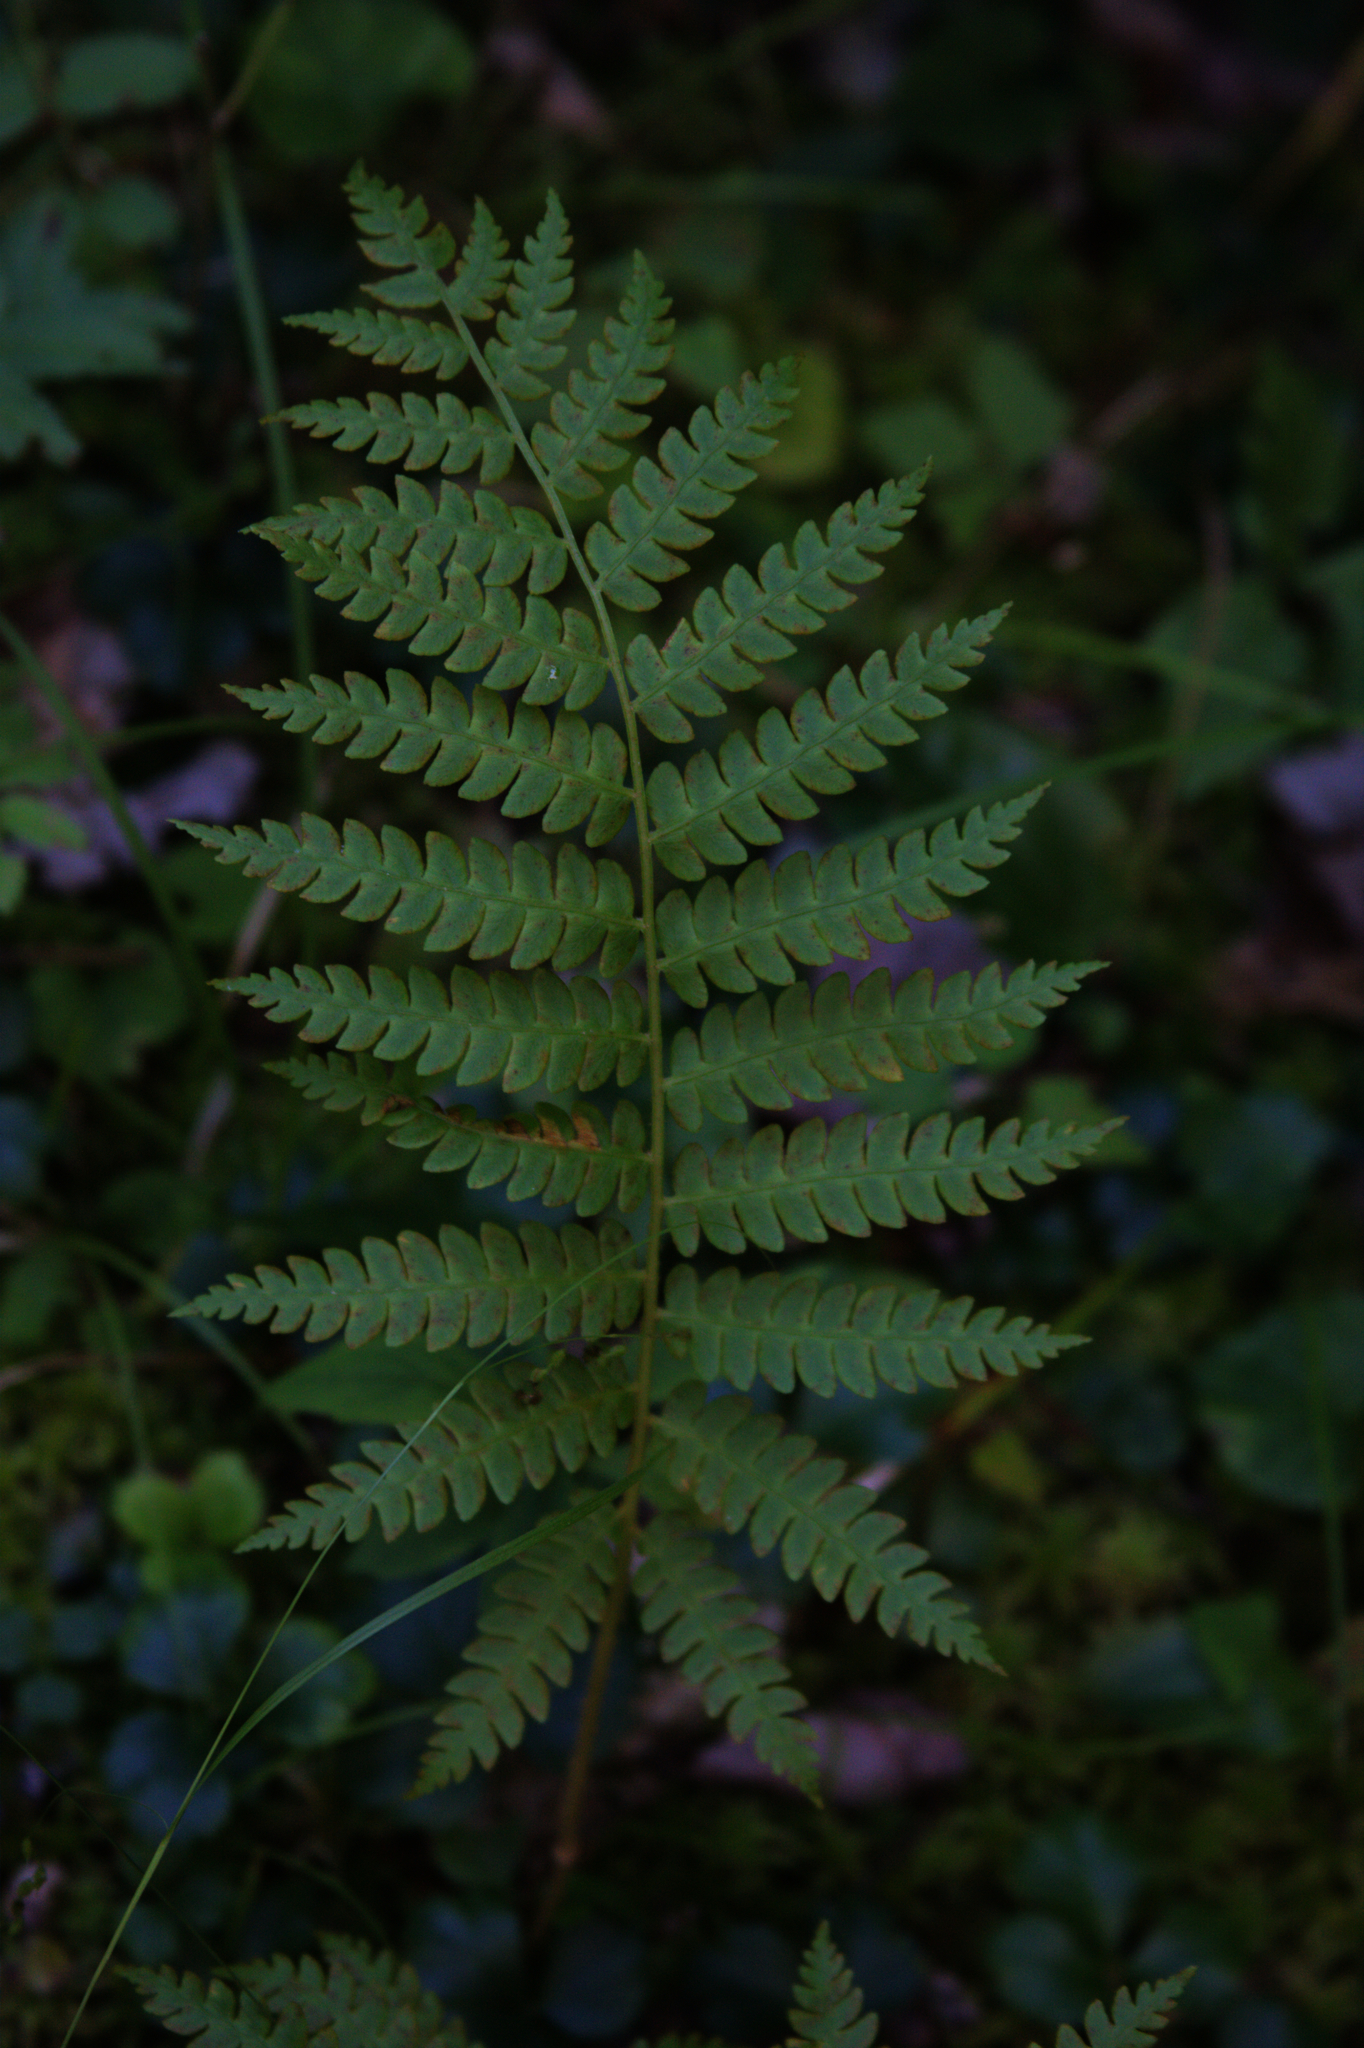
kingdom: Plantae
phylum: Tracheophyta
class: Polypodiopsida
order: Osmundales
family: Osmundaceae
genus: Osmundastrum
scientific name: Osmundastrum cinnamomeum
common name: Cinnamon fern
